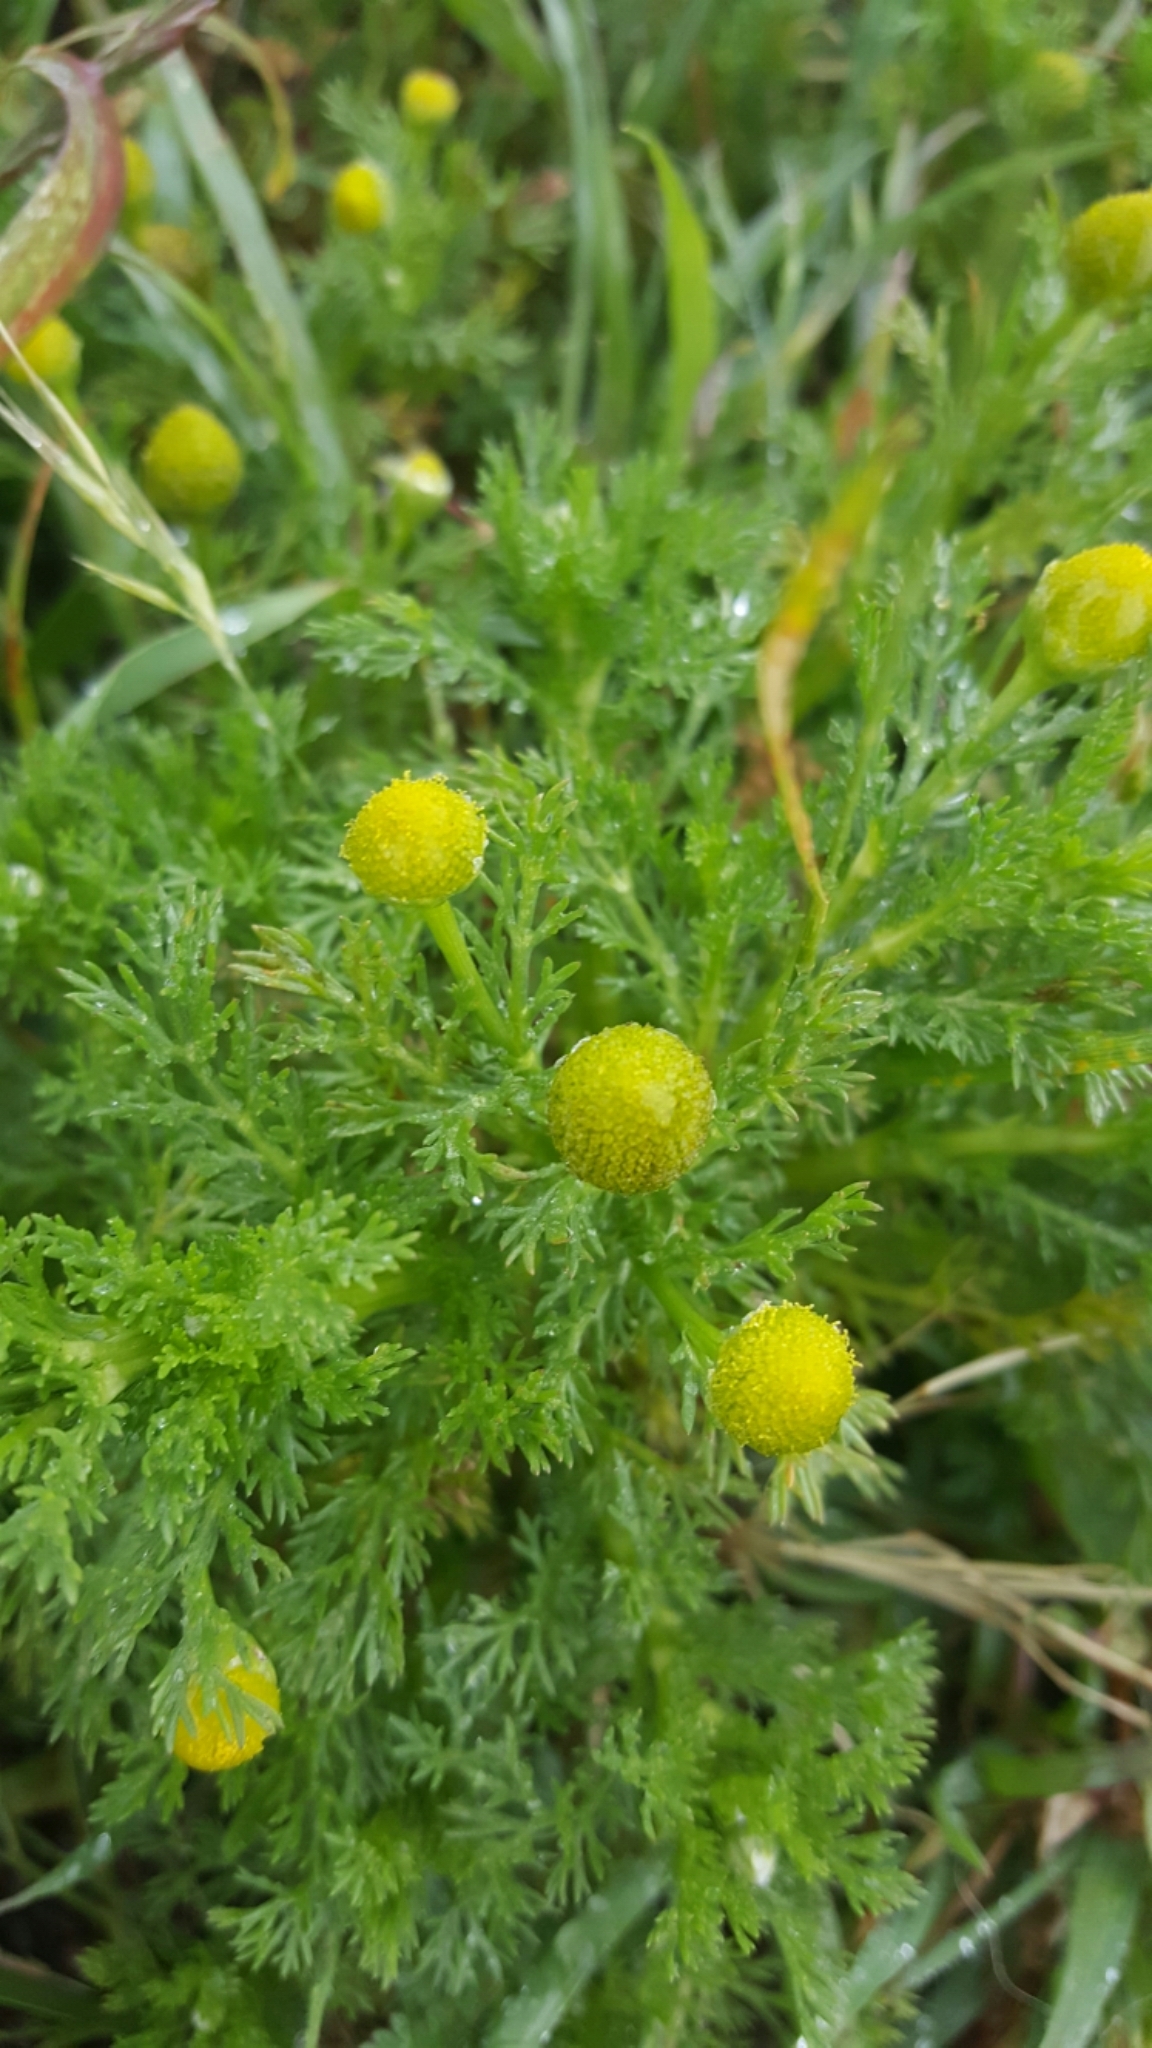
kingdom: Plantae
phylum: Tracheophyta
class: Magnoliopsida
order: Asterales
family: Asteraceae
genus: Matricaria
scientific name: Matricaria discoidea
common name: Disc mayweed
